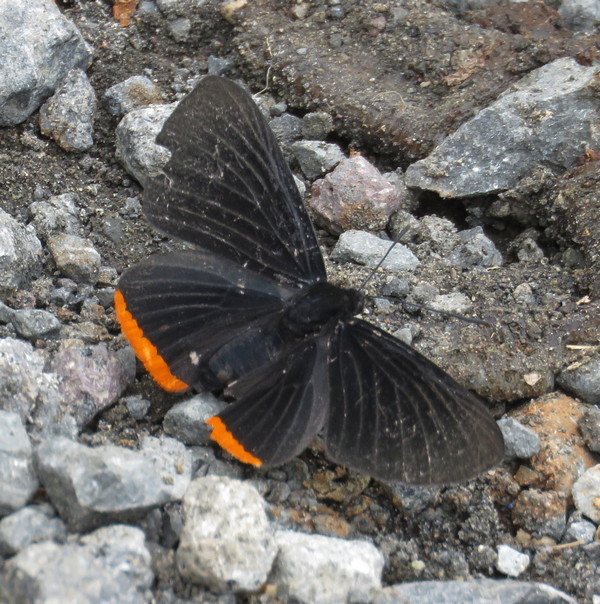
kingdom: Animalia
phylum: Arthropoda
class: Insecta
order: Lepidoptera
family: Lycaenidae
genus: Melanis
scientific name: Melanis
